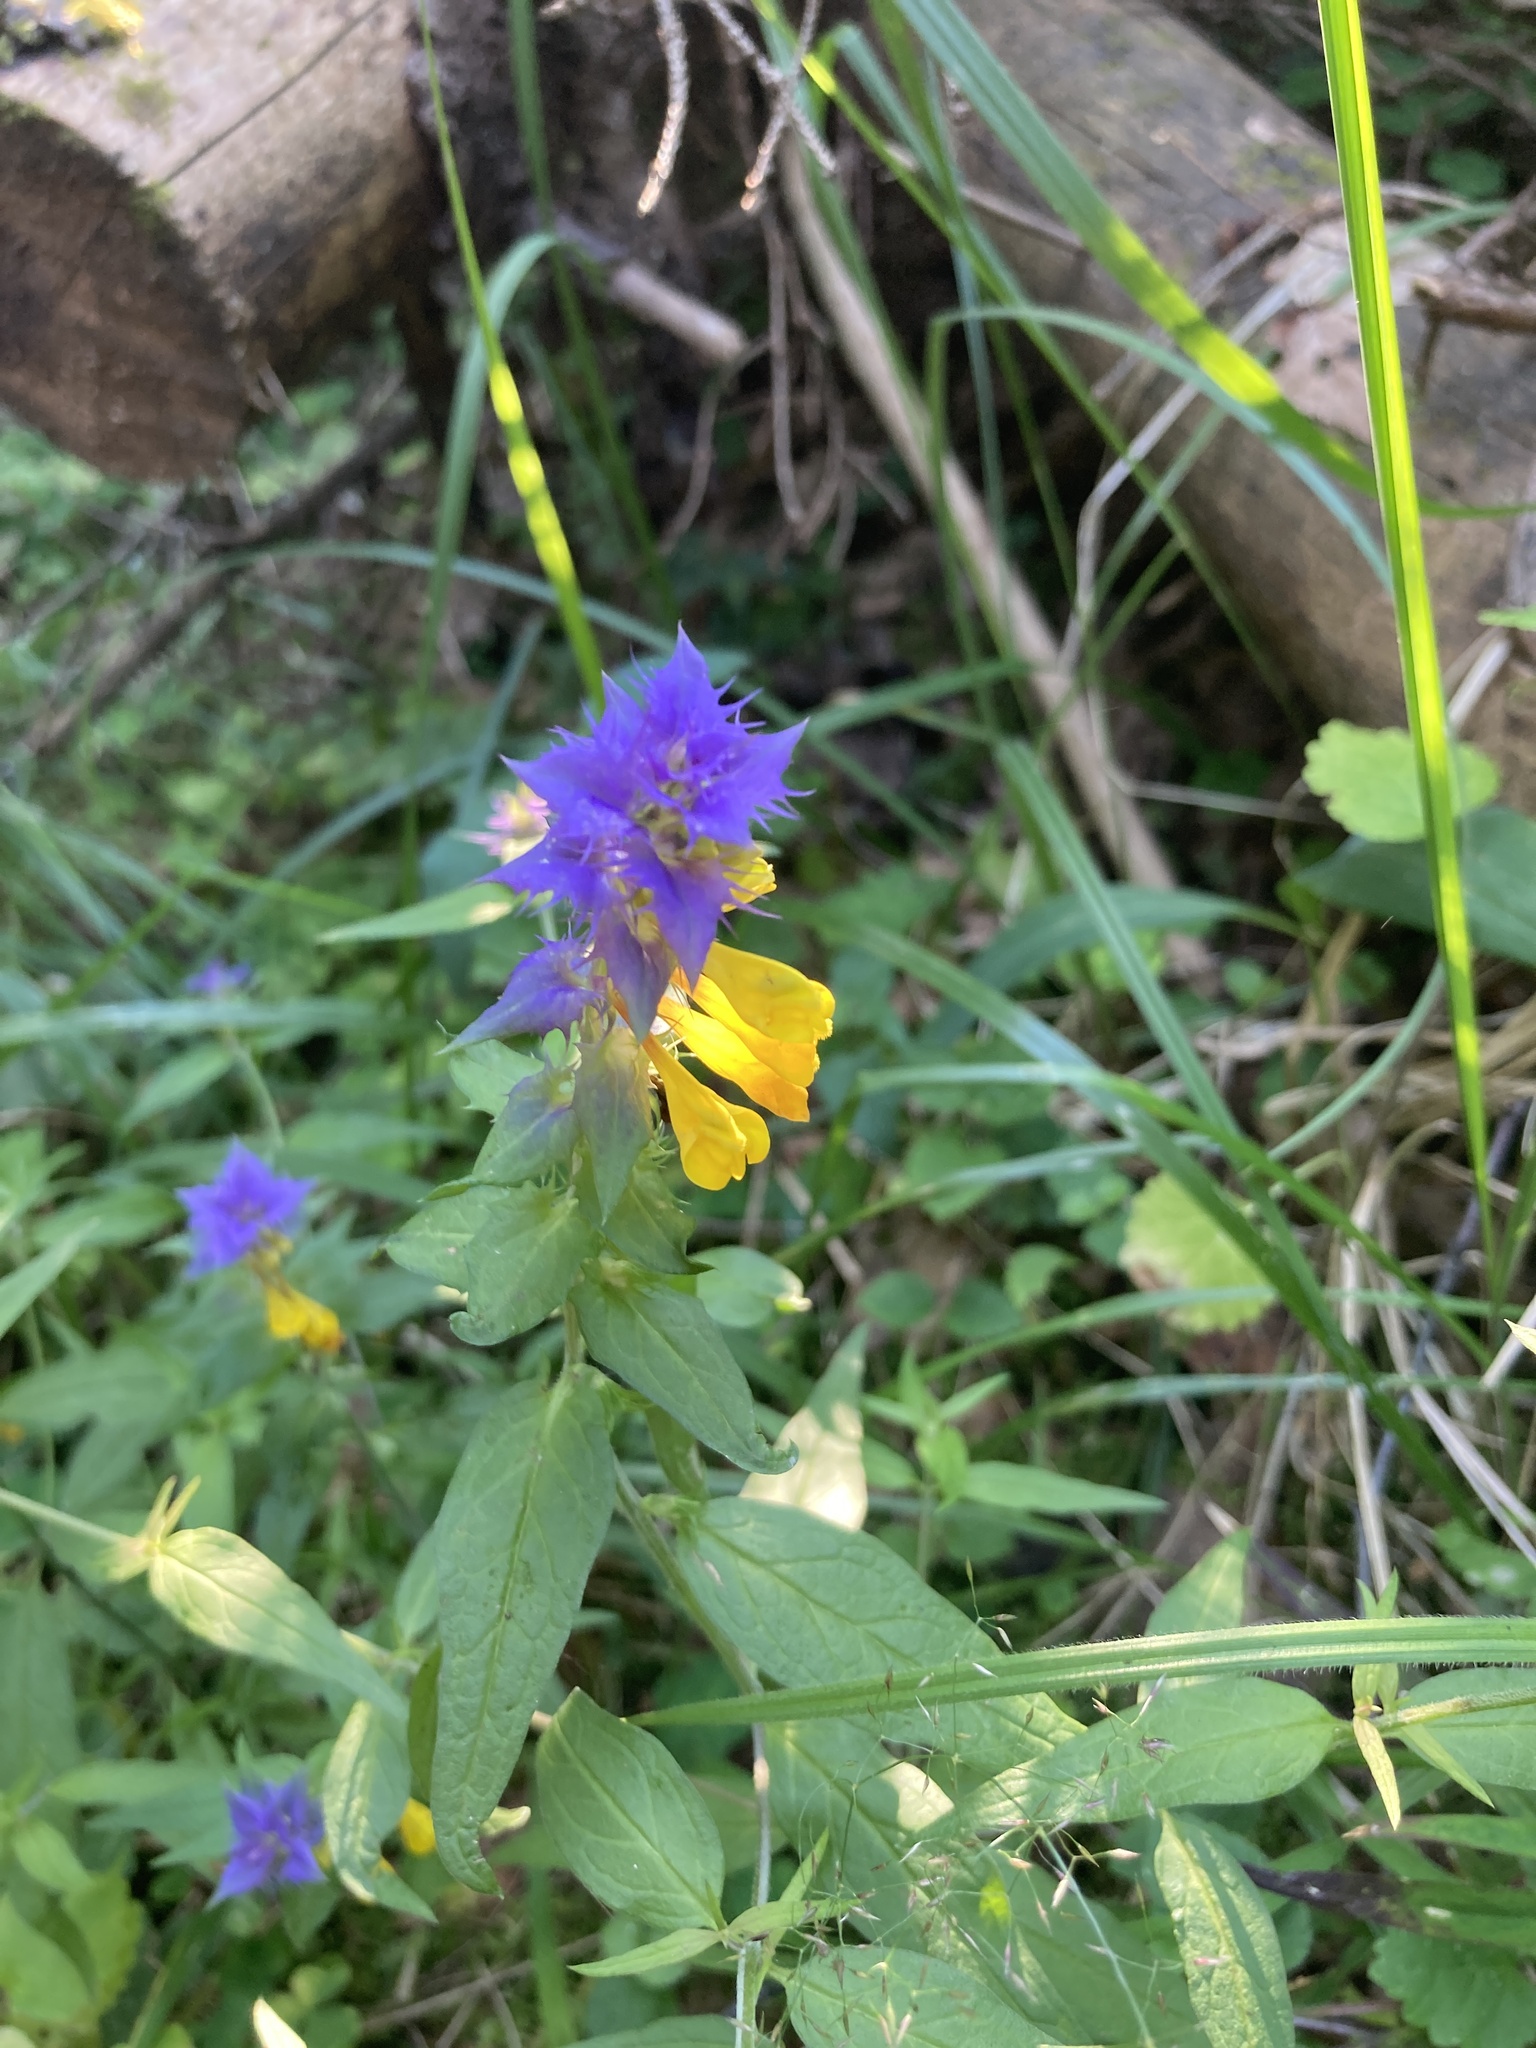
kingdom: Plantae
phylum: Tracheophyta
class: Magnoliopsida
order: Lamiales
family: Orobanchaceae
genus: Melampyrum
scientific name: Melampyrum nemorosum
